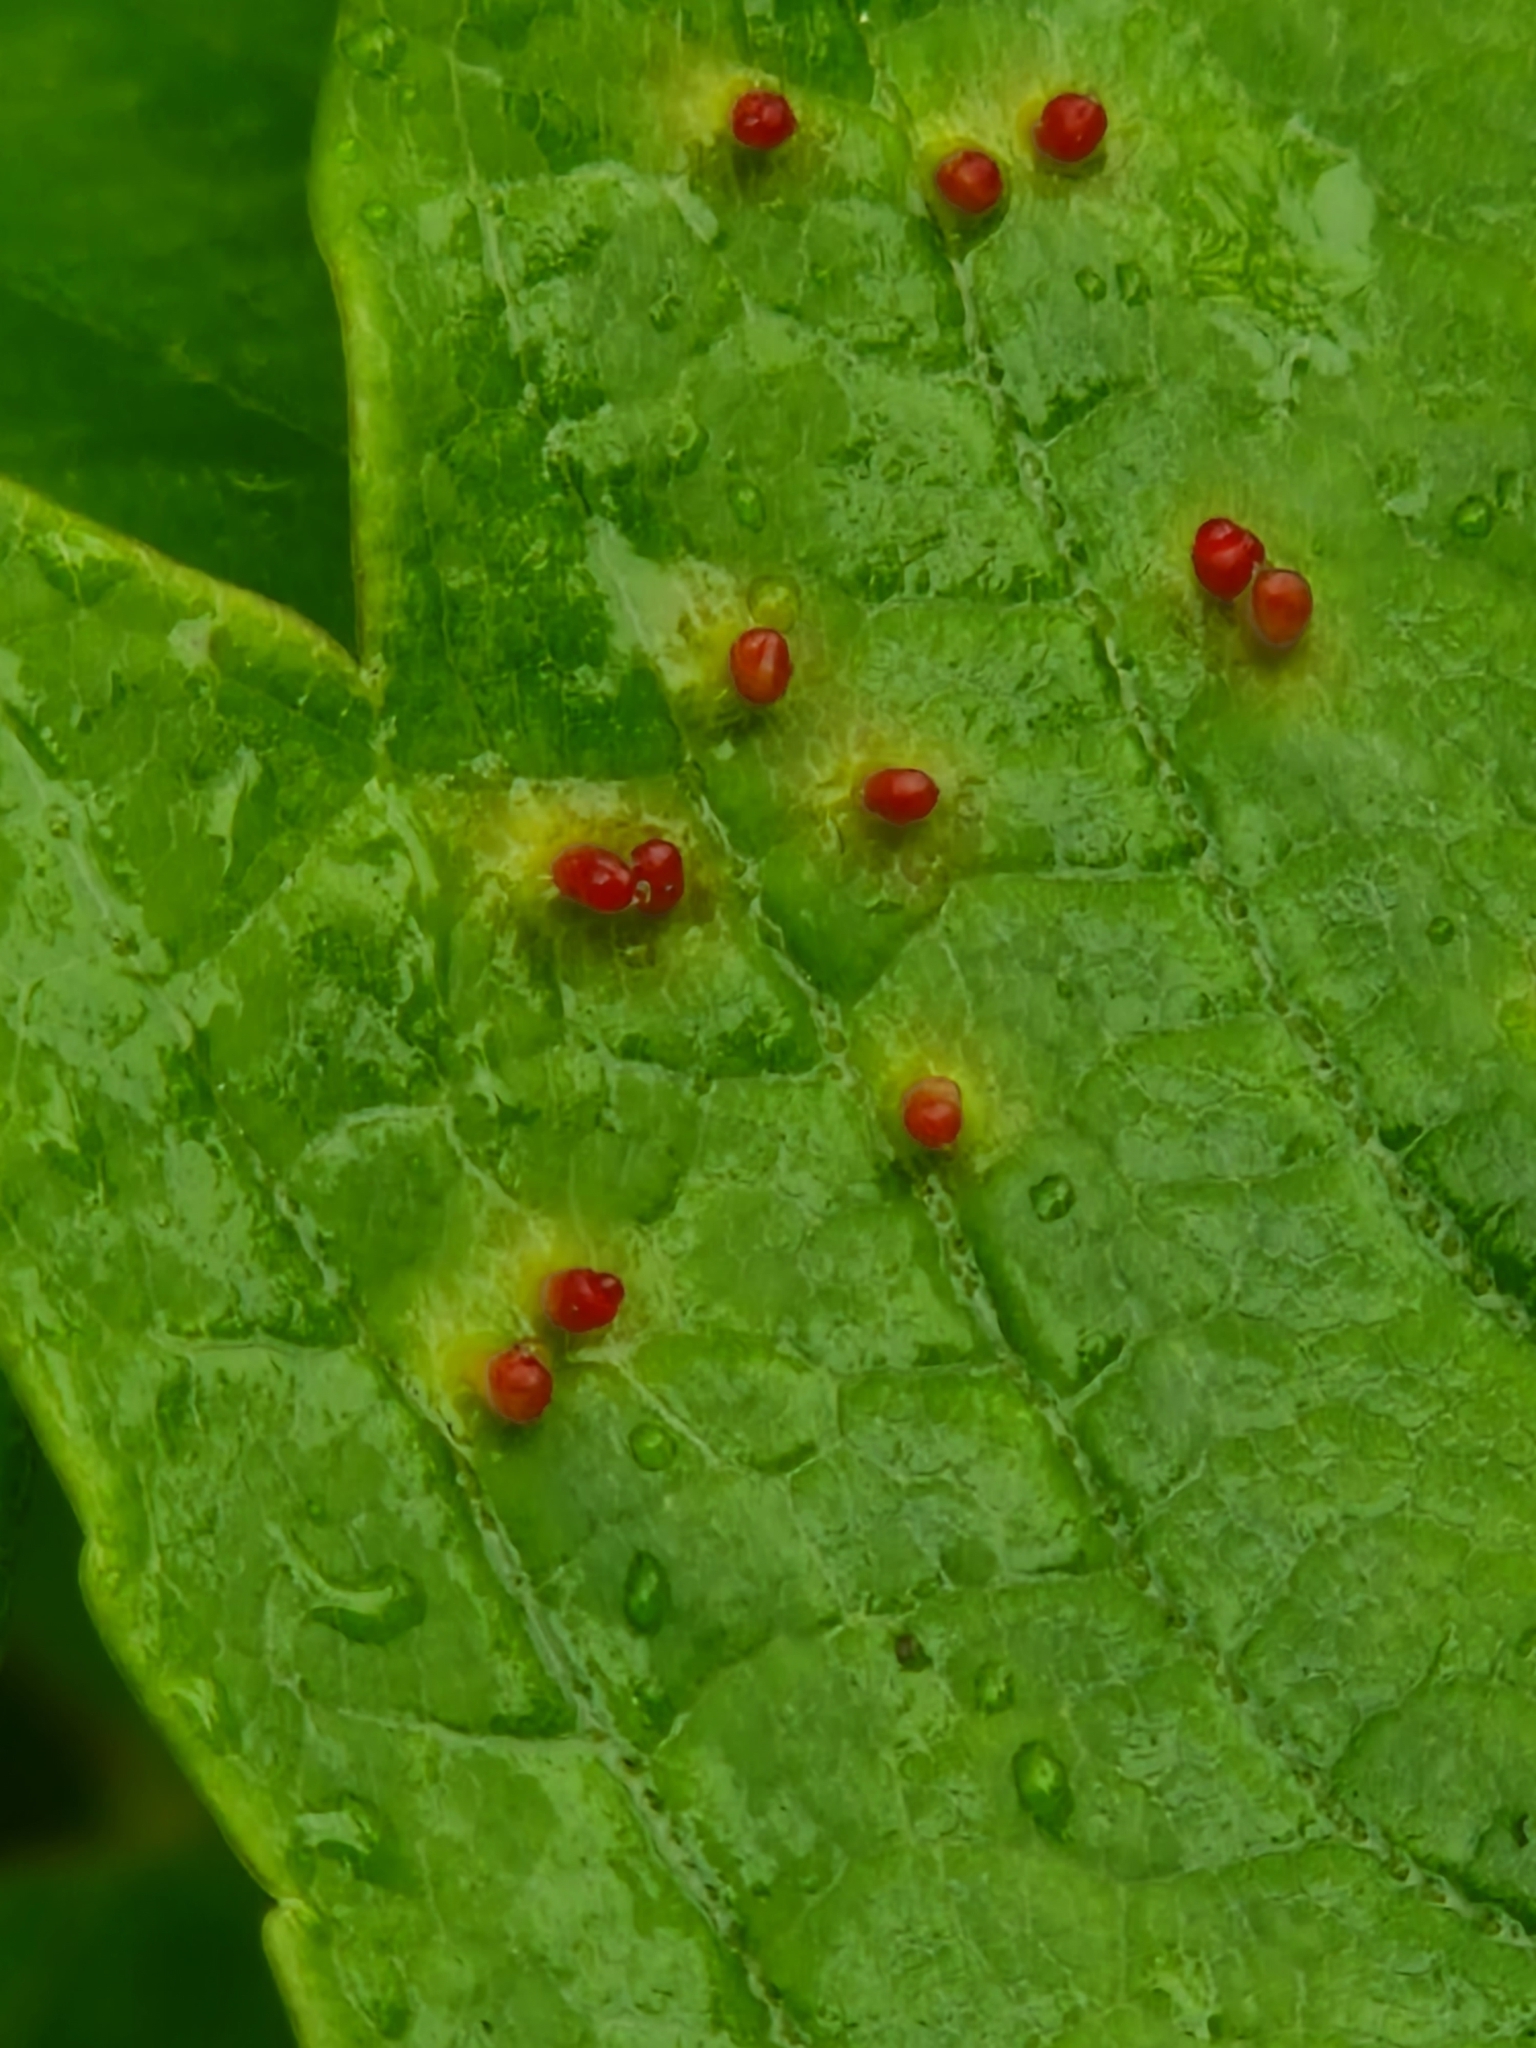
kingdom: Animalia
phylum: Arthropoda
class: Arachnida
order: Trombidiformes
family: Eriophyidae
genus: Aceria
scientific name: Aceria cephaloneus
